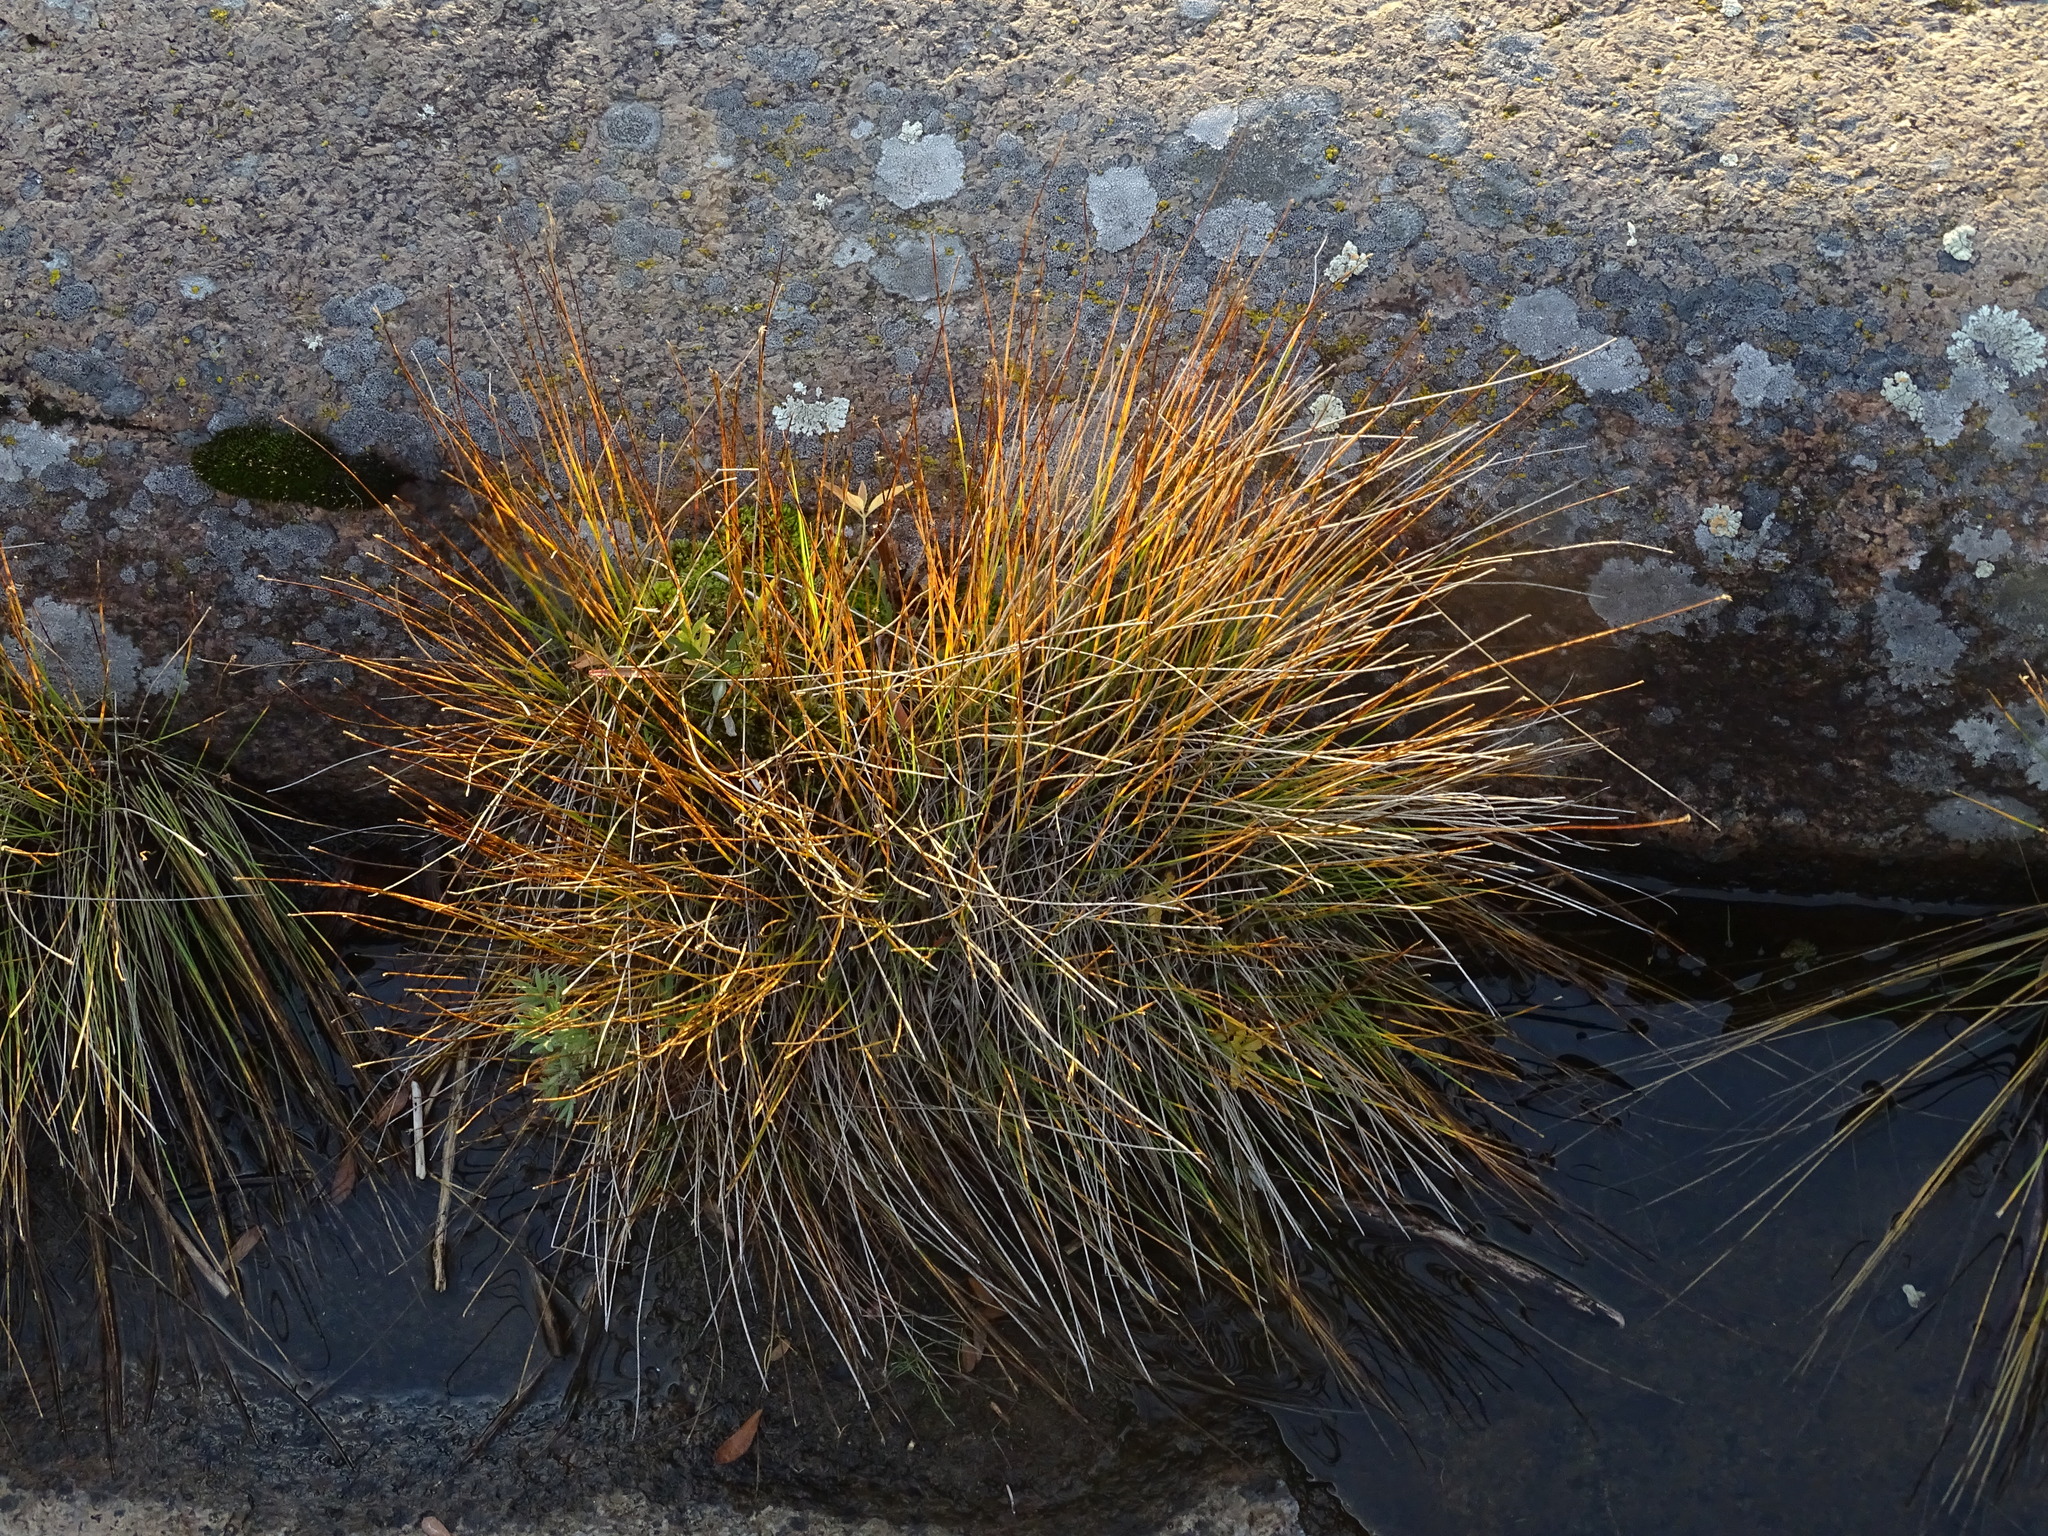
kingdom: Plantae
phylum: Tracheophyta
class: Liliopsida
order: Poales
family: Cyperaceae
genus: Trichophorum
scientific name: Trichophorum cespitosum
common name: Cespitose bulrush
